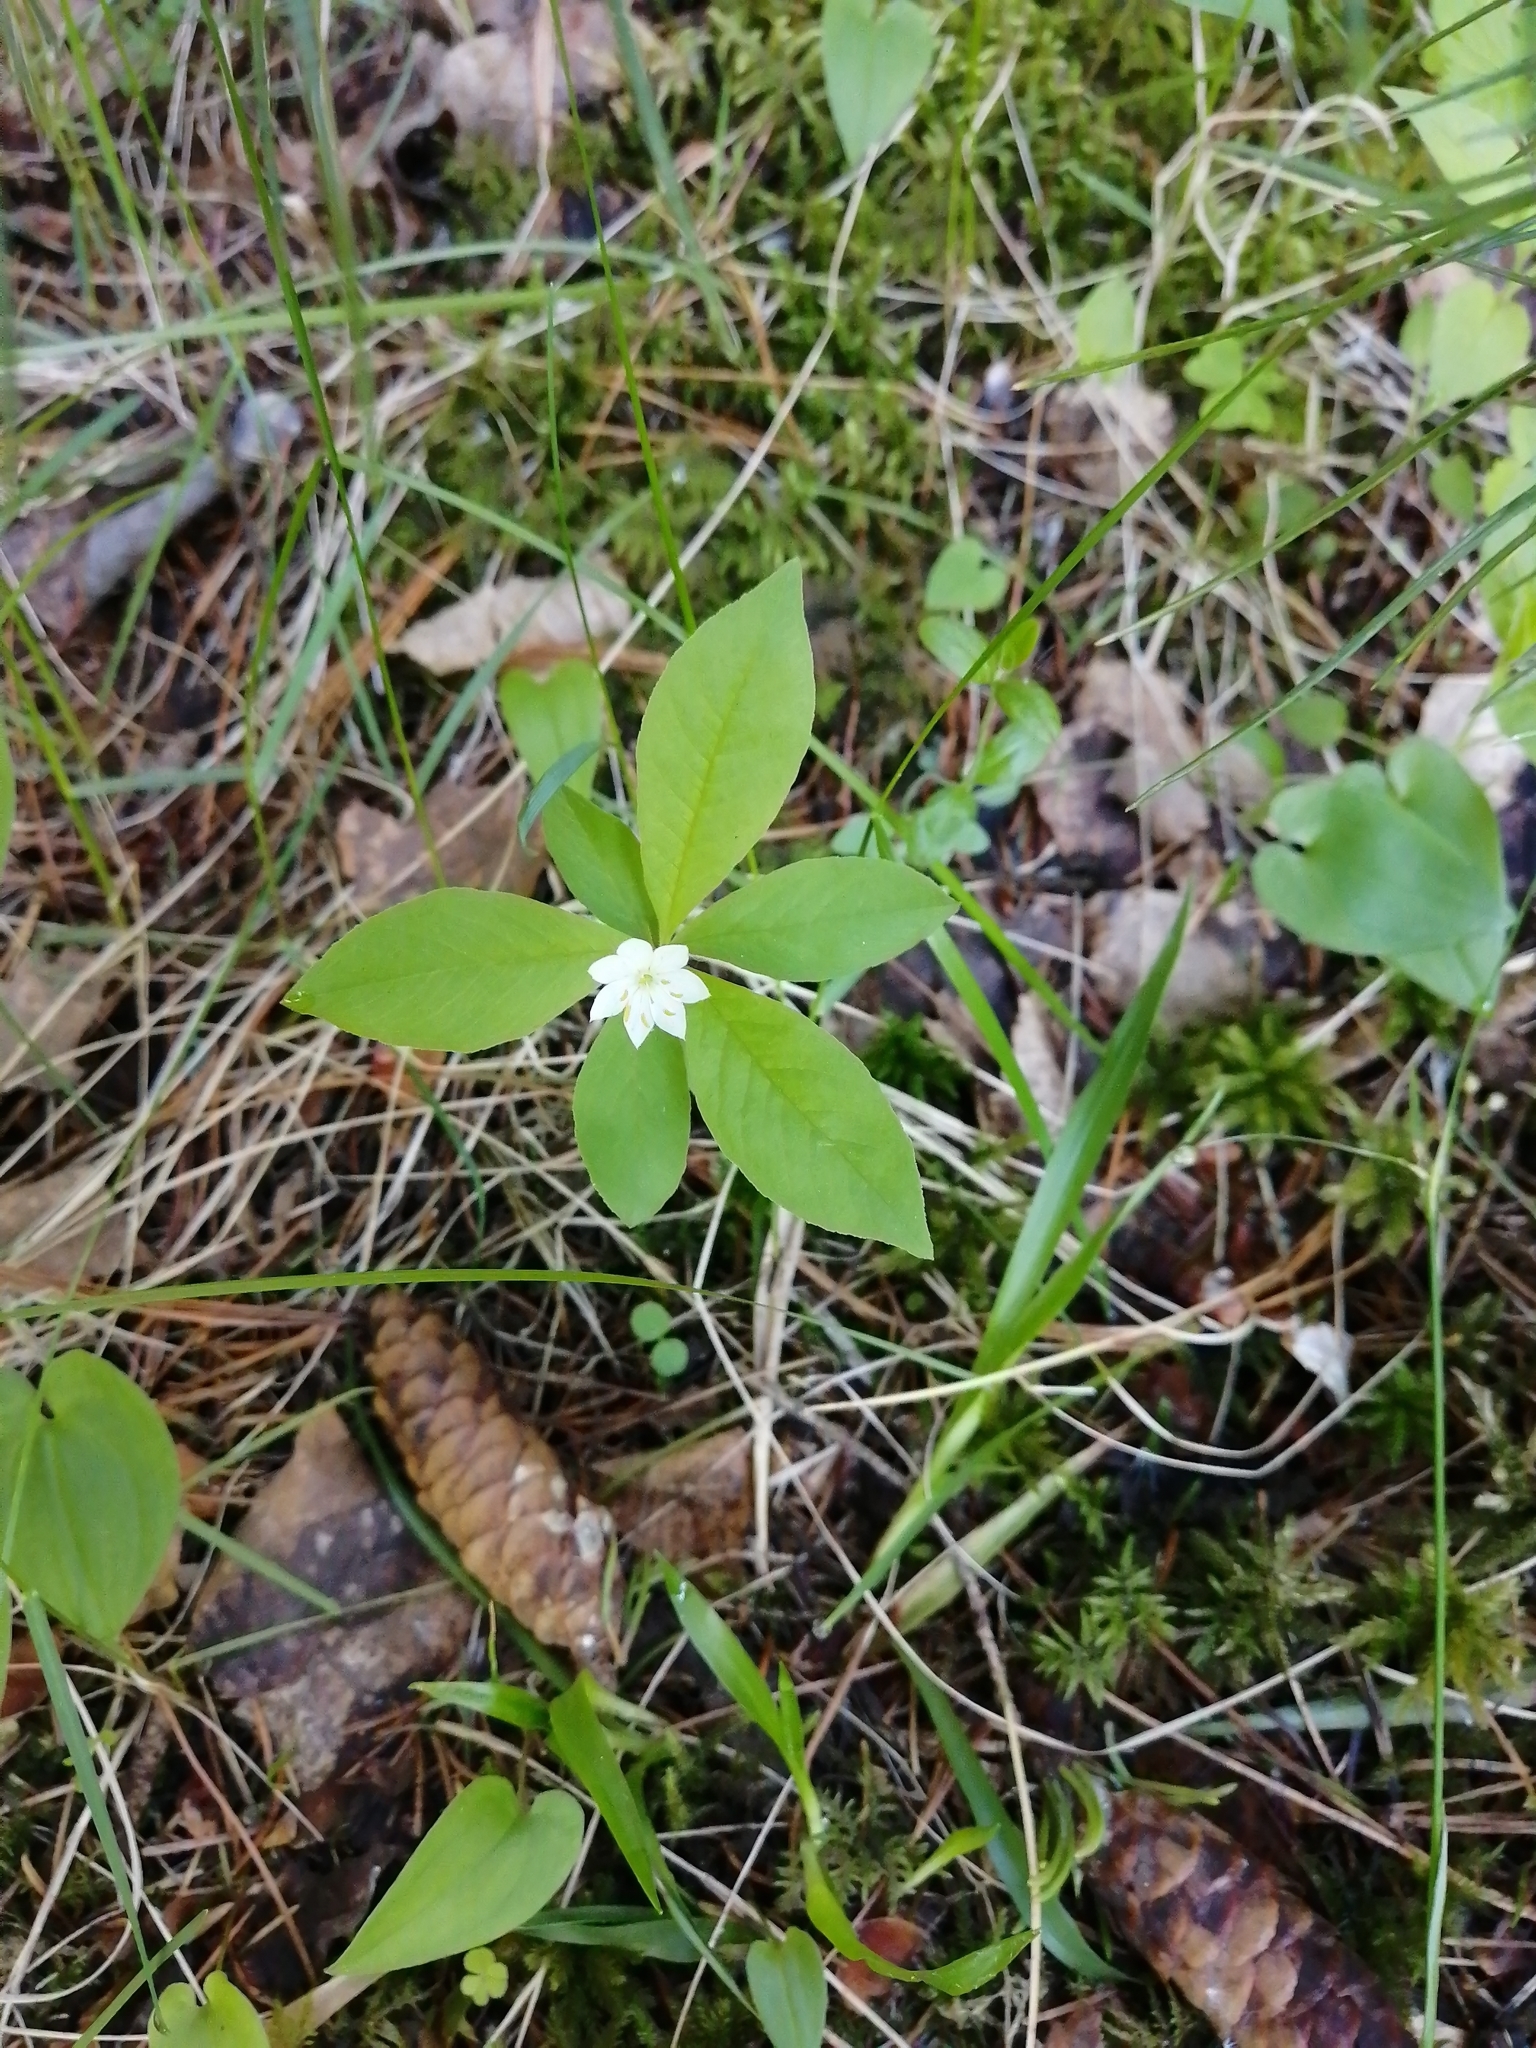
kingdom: Plantae
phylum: Tracheophyta
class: Magnoliopsida
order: Ericales
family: Primulaceae
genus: Lysimachia
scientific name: Lysimachia europaea
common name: Arctic starflower
